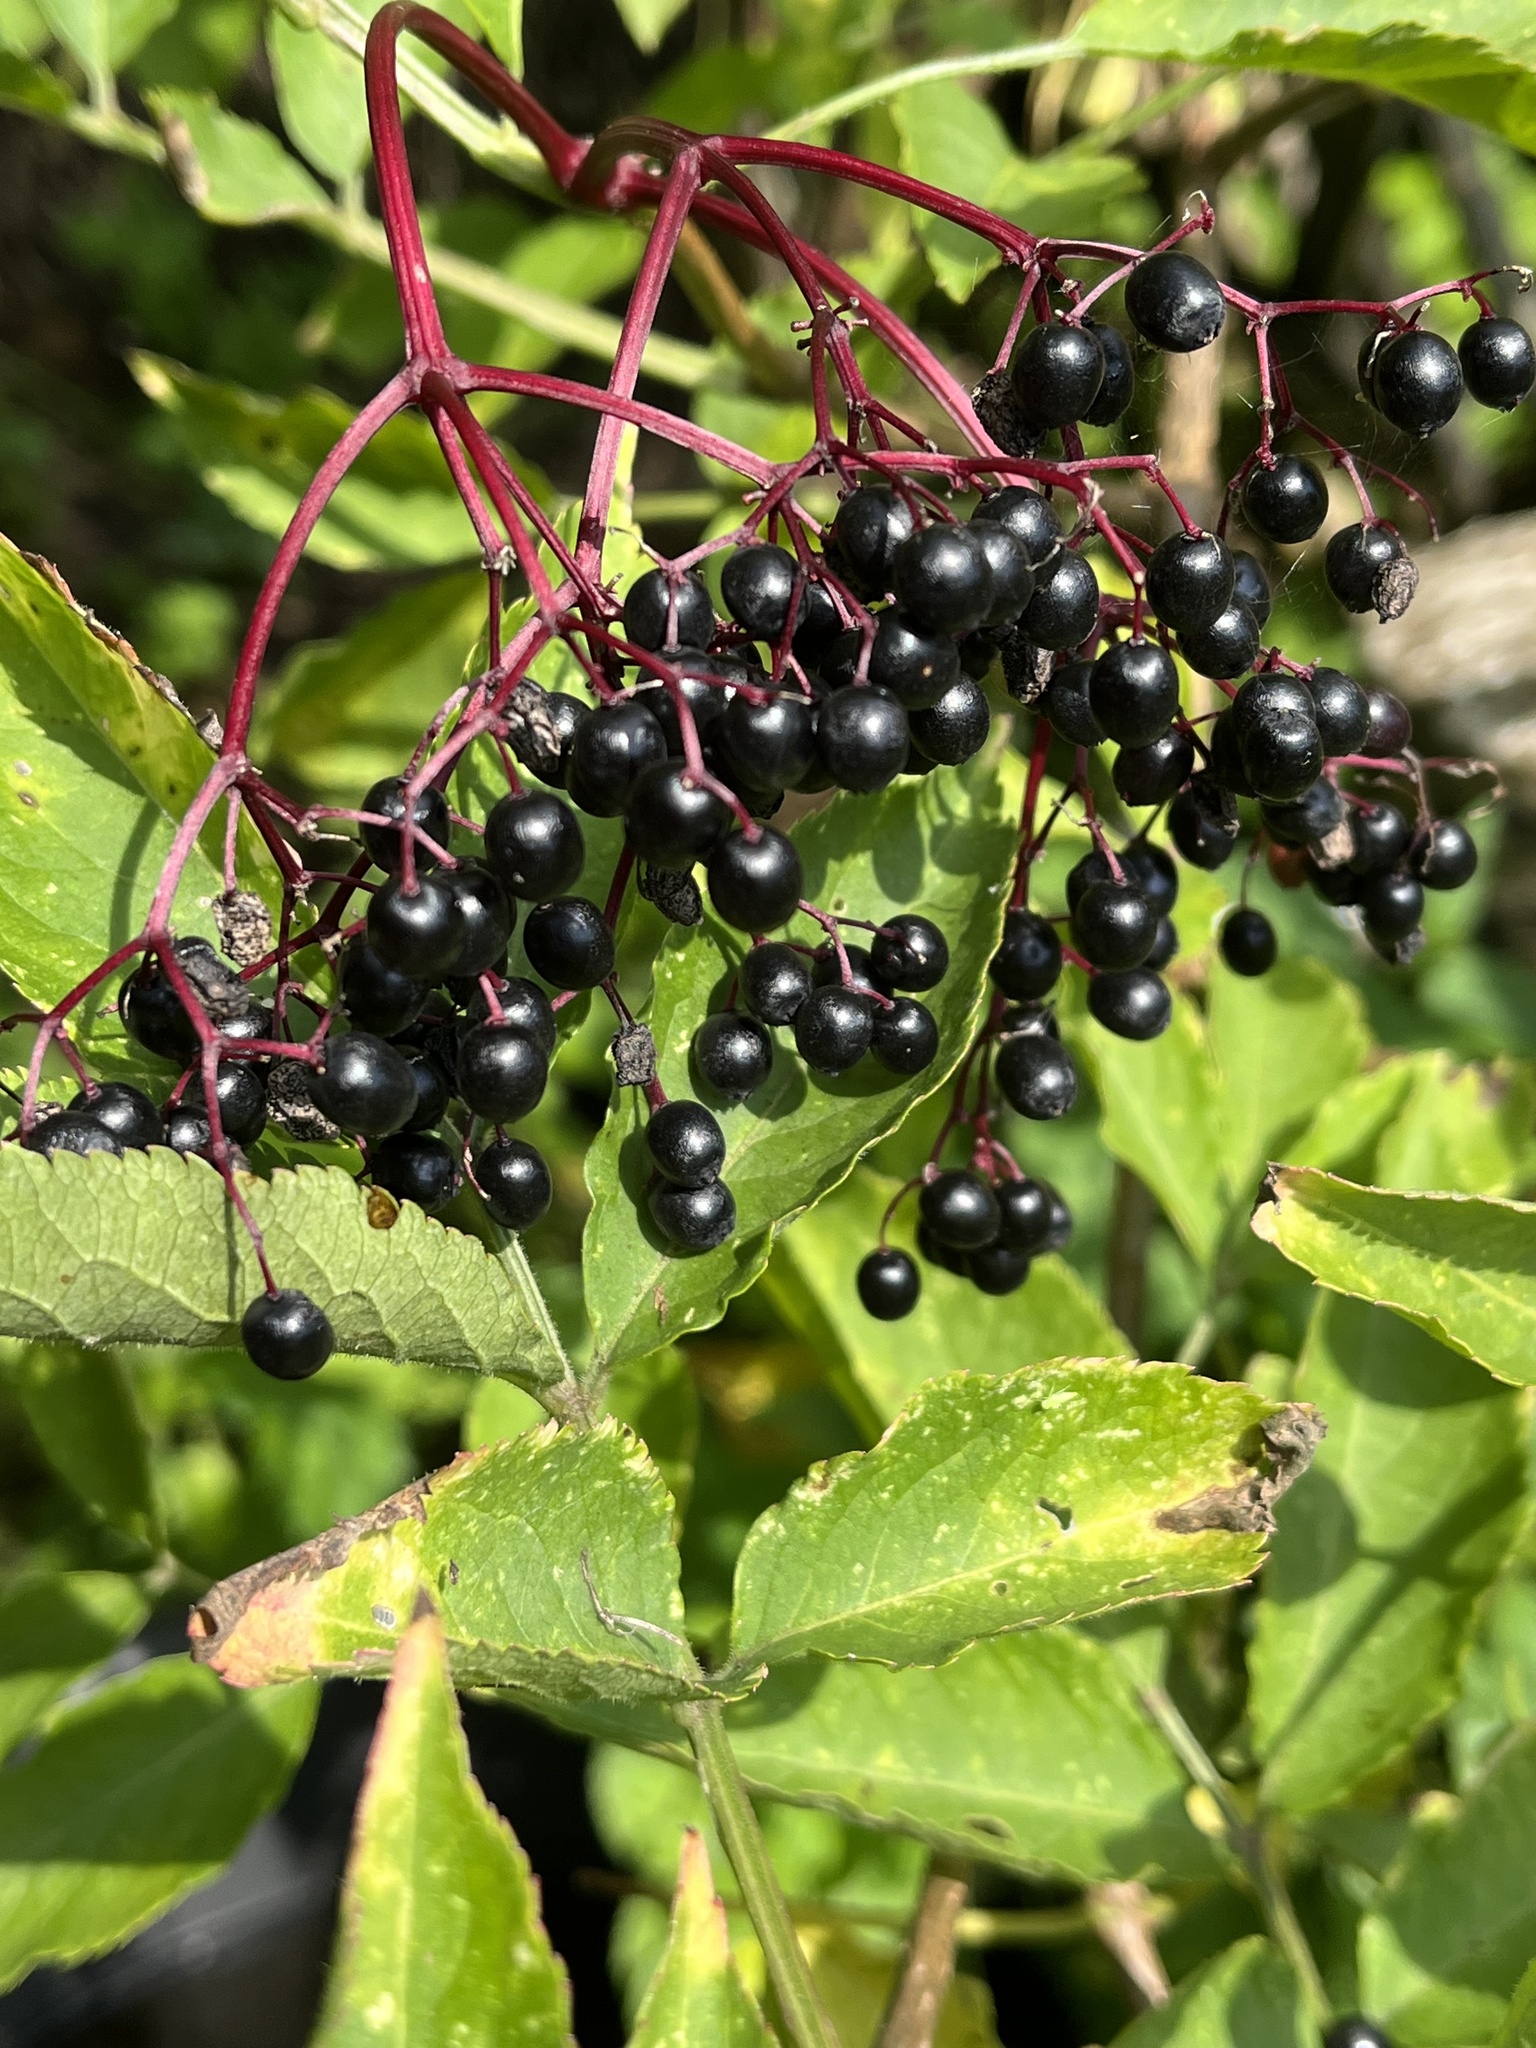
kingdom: Plantae
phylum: Tracheophyta
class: Magnoliopsida
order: Dipsacales
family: Viburnaceae
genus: Sambucus
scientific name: Sambucus nigra
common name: Elder
